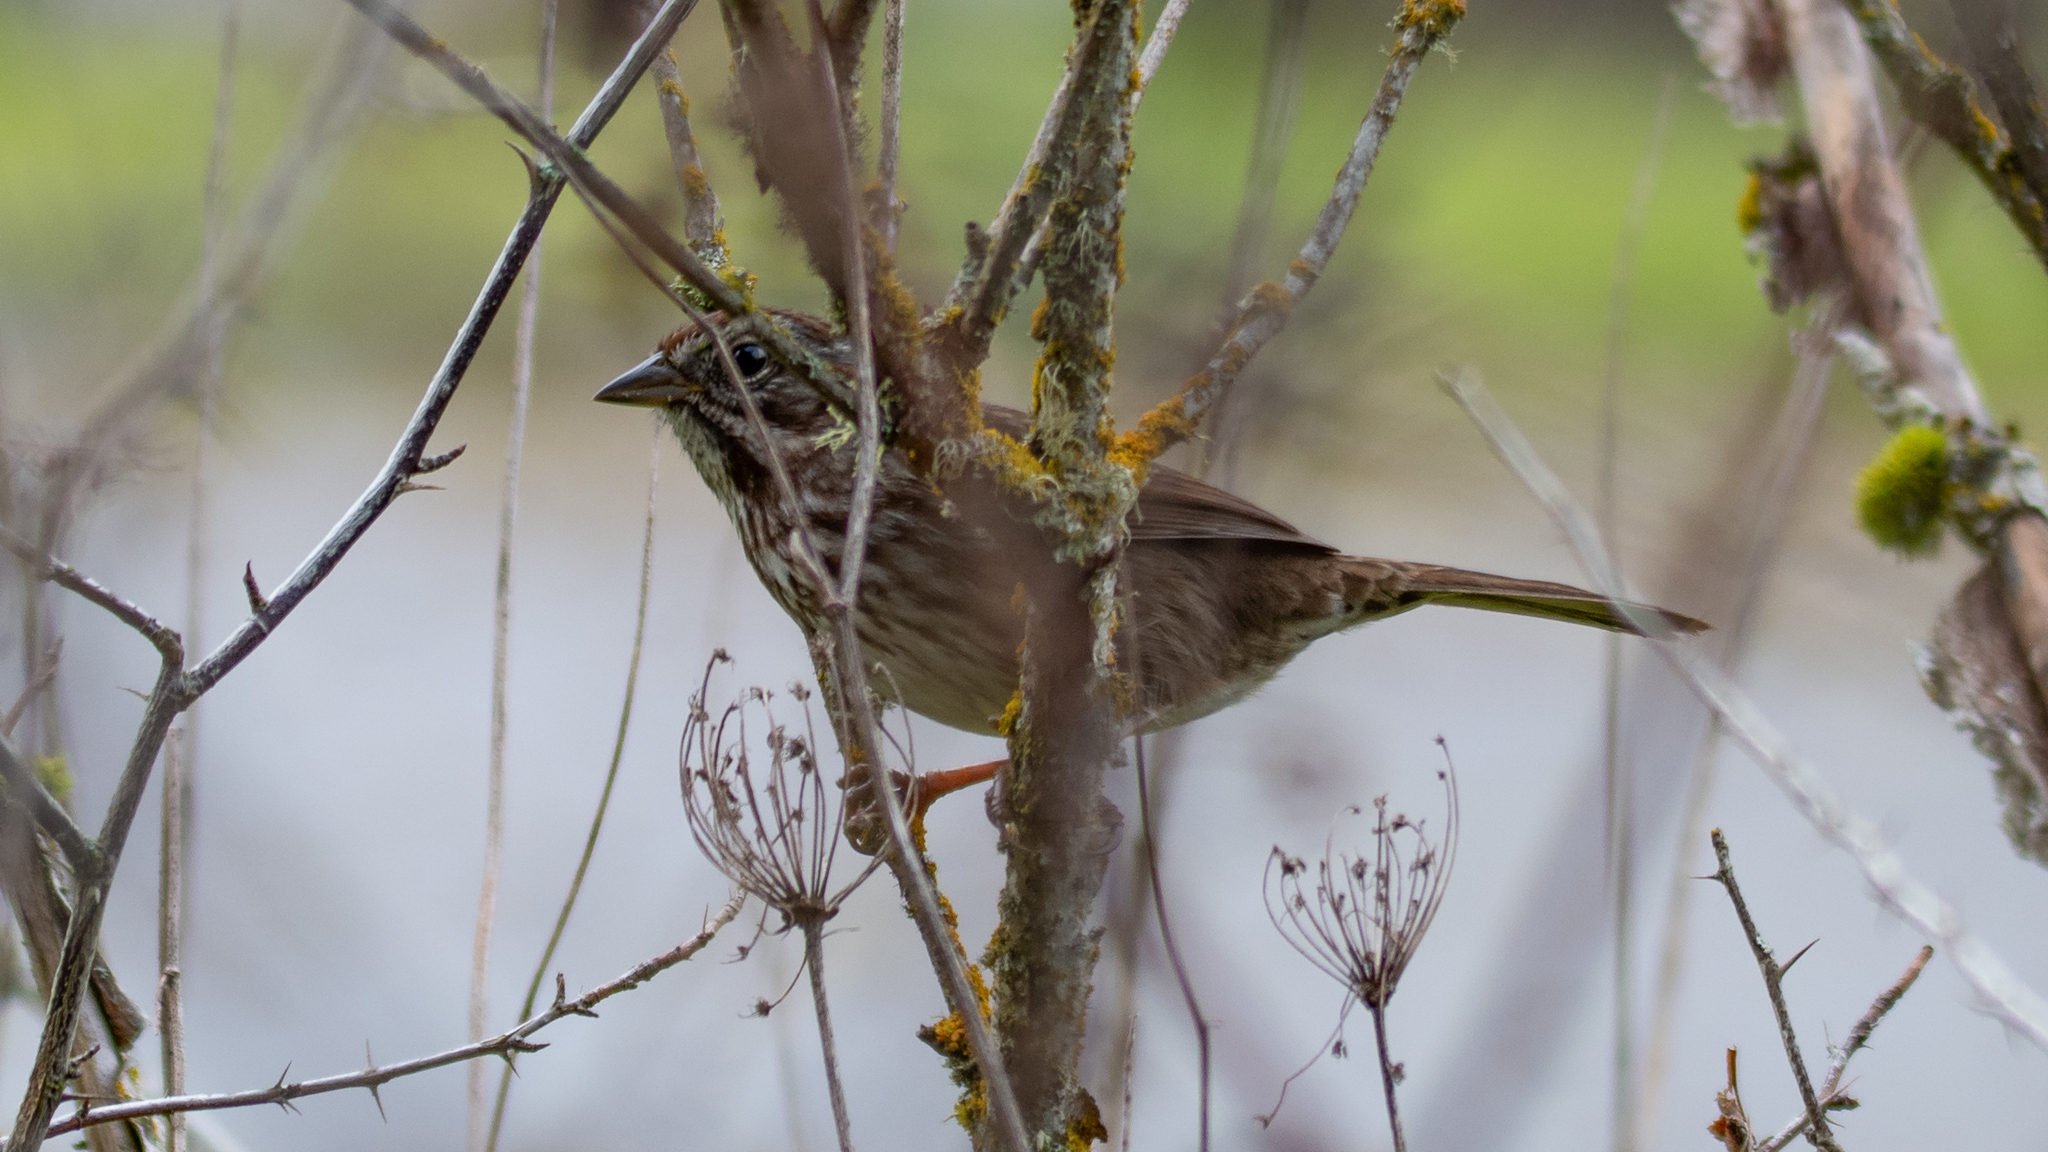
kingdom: Animalia
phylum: Chordata
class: Aves
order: Passeriformes
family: Passerellidae
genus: Melospiza
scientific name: Melospiza melodia
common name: Song sparrow
